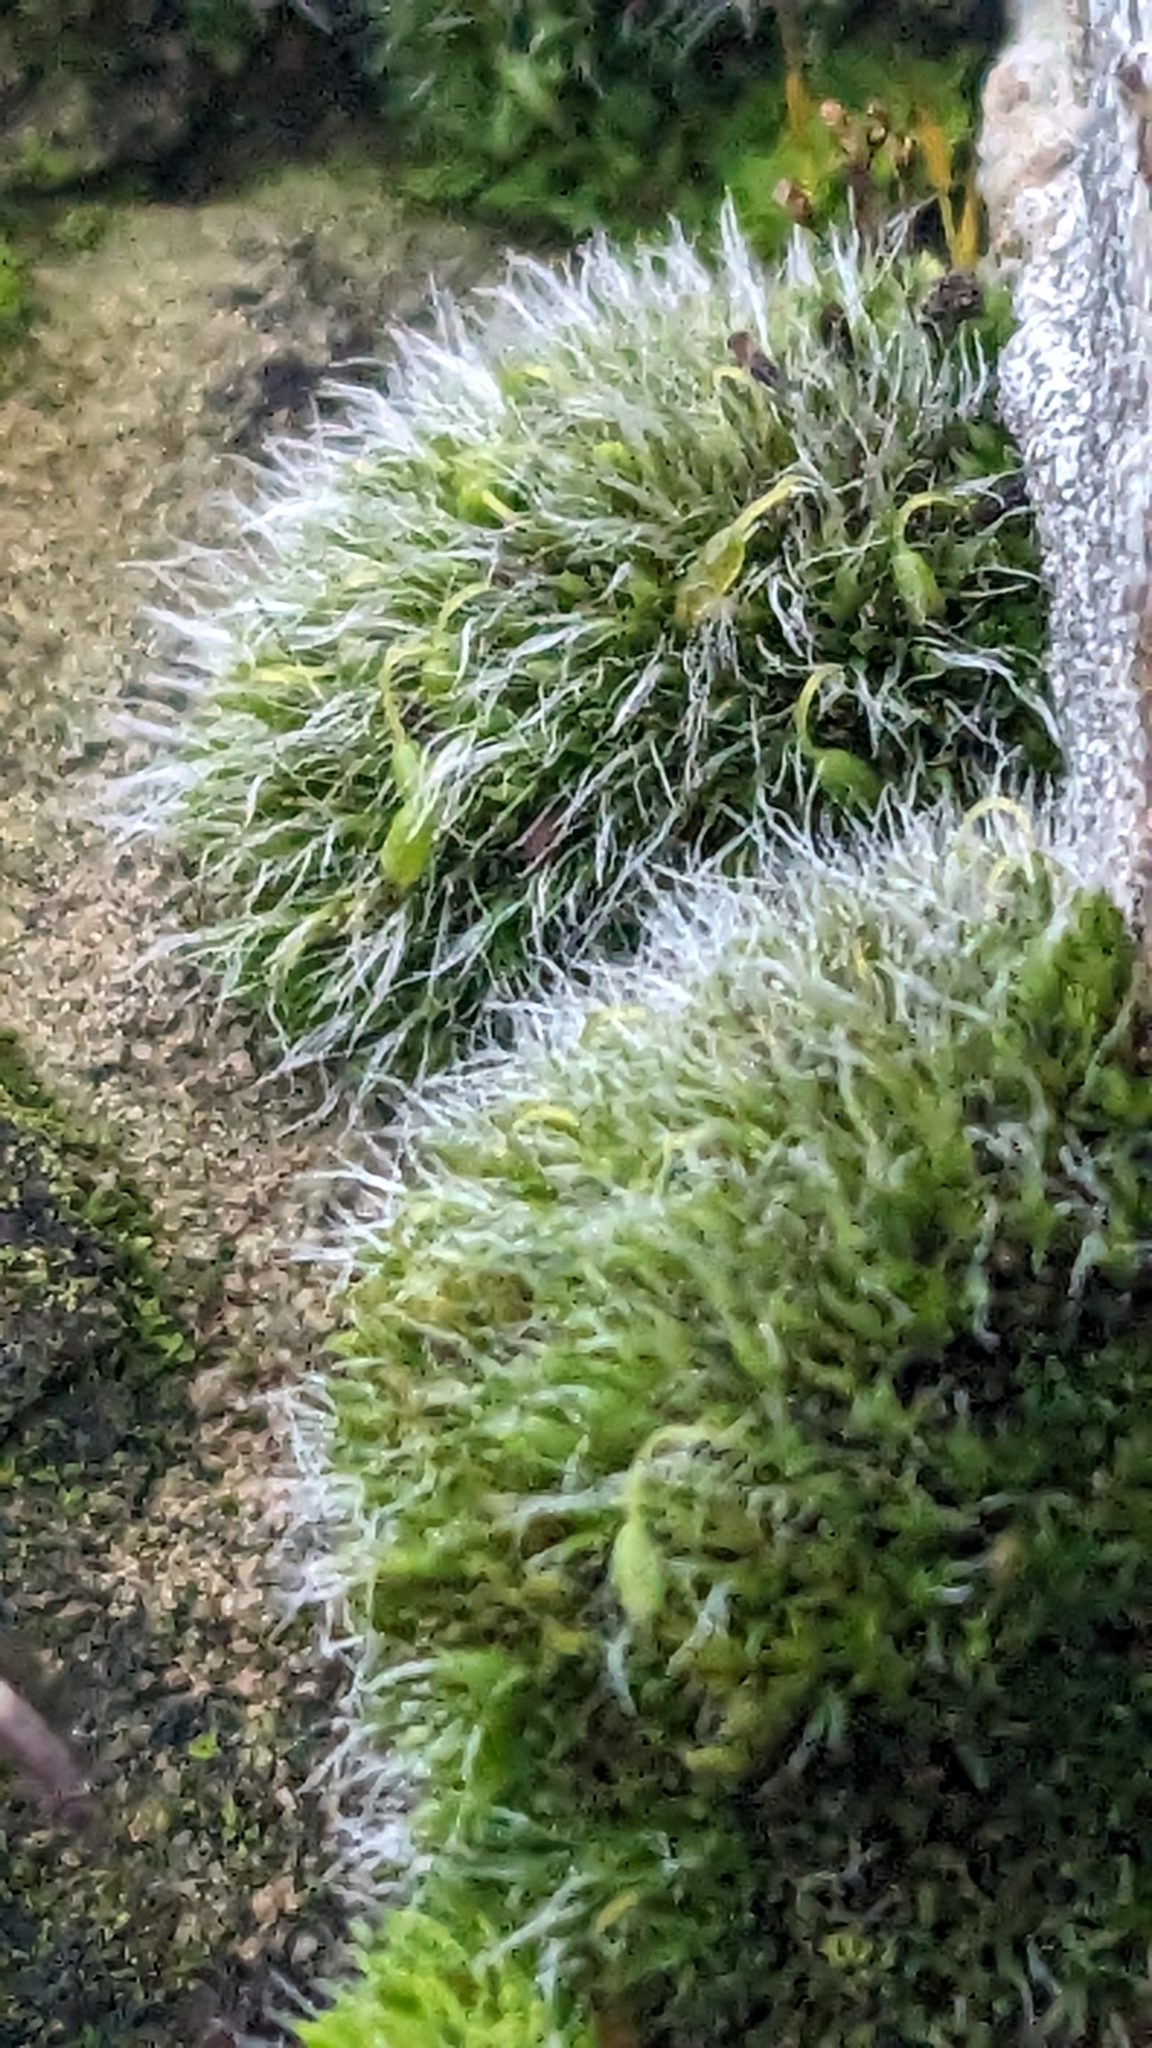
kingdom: Plantae
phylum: Bryophyta
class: Bryopsida
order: Grimmiales
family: Grimmiaceae
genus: Grimmia
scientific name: Grimmia pulvinata
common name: Grey-cushioned grimmia
